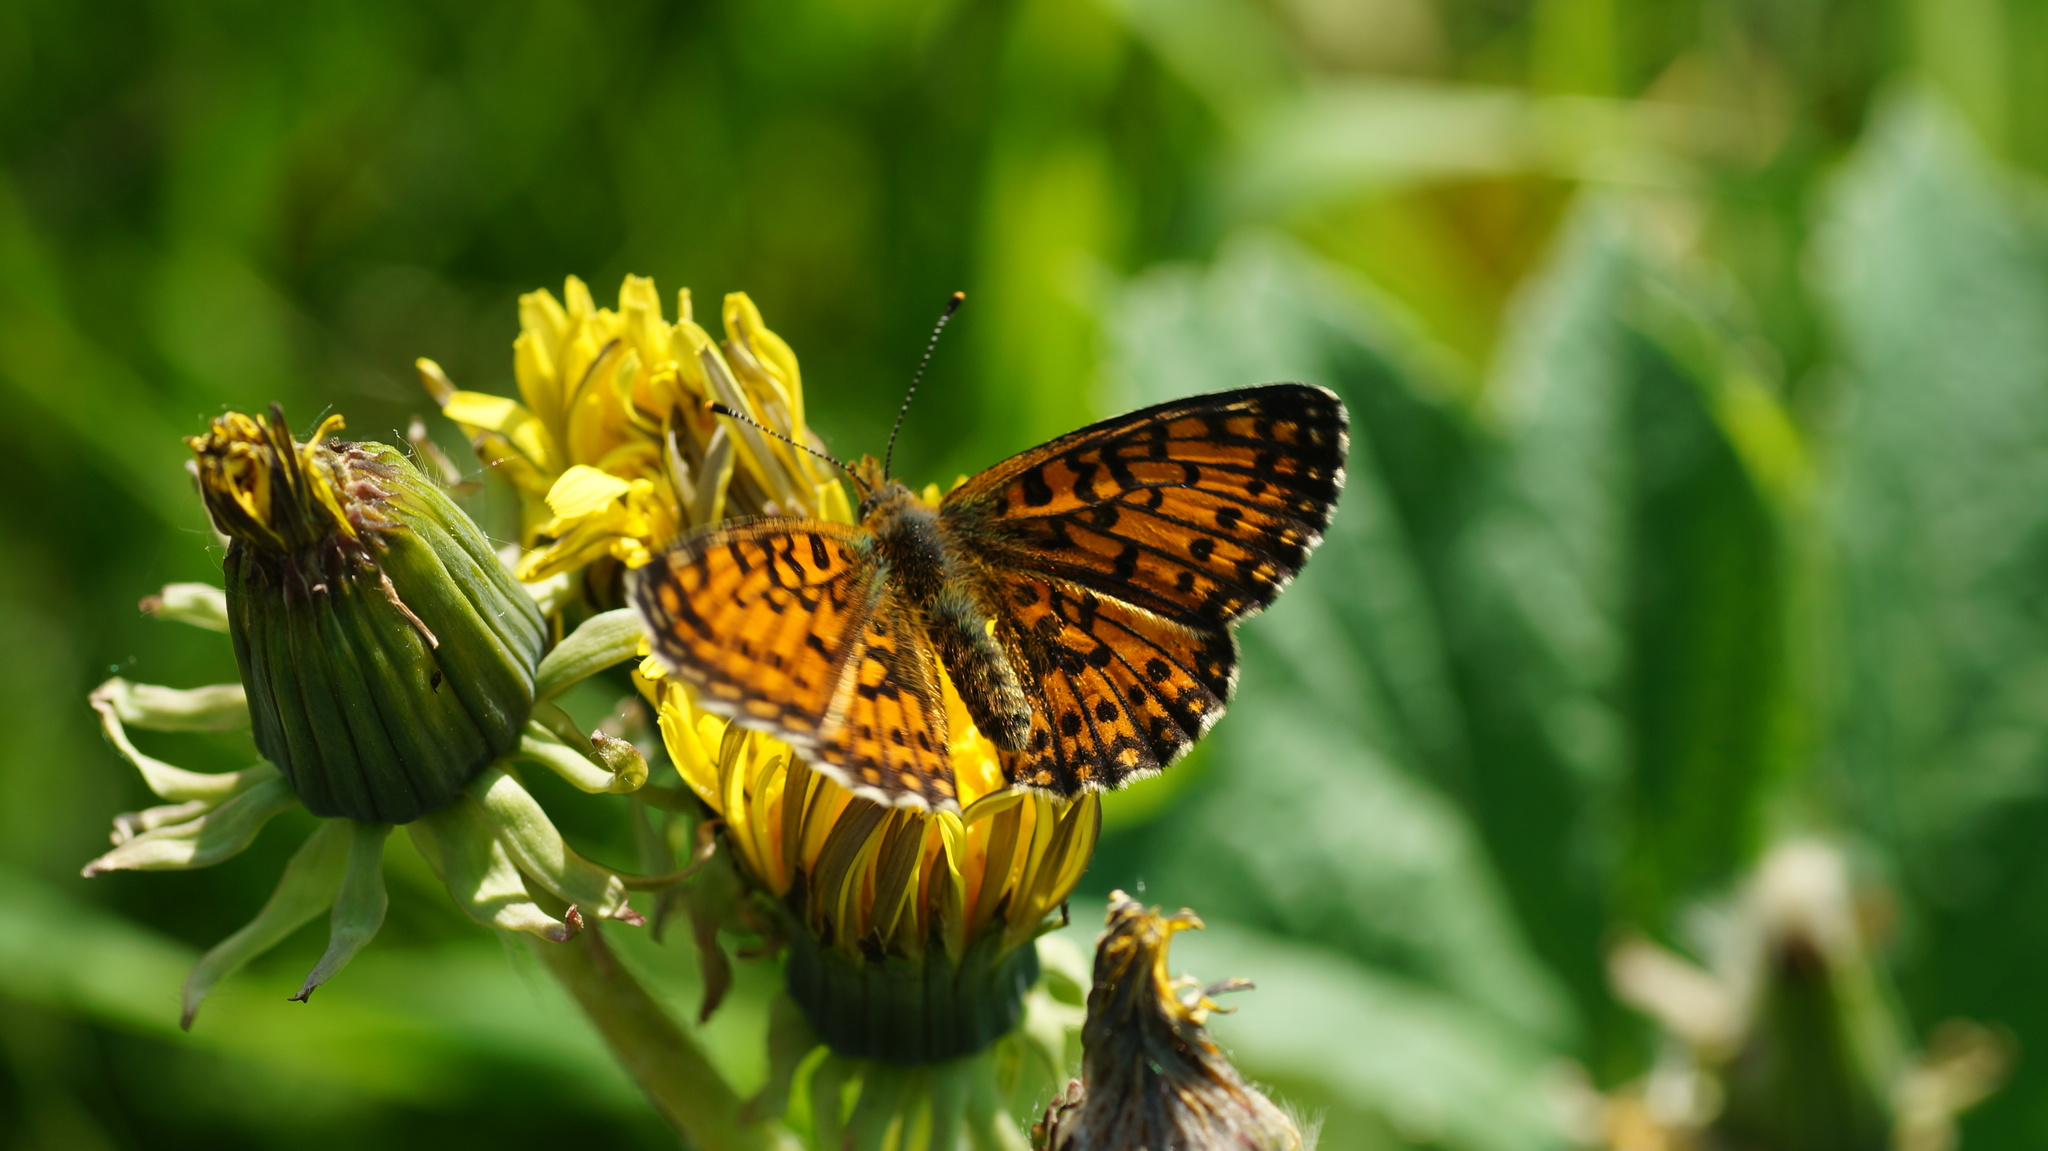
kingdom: Animalia
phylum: Arthropoda
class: Insecta
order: Lepidoptera
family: Nymphalidae
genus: Boloria
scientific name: Boloria selene
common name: Small pearl-bordered fritillary
